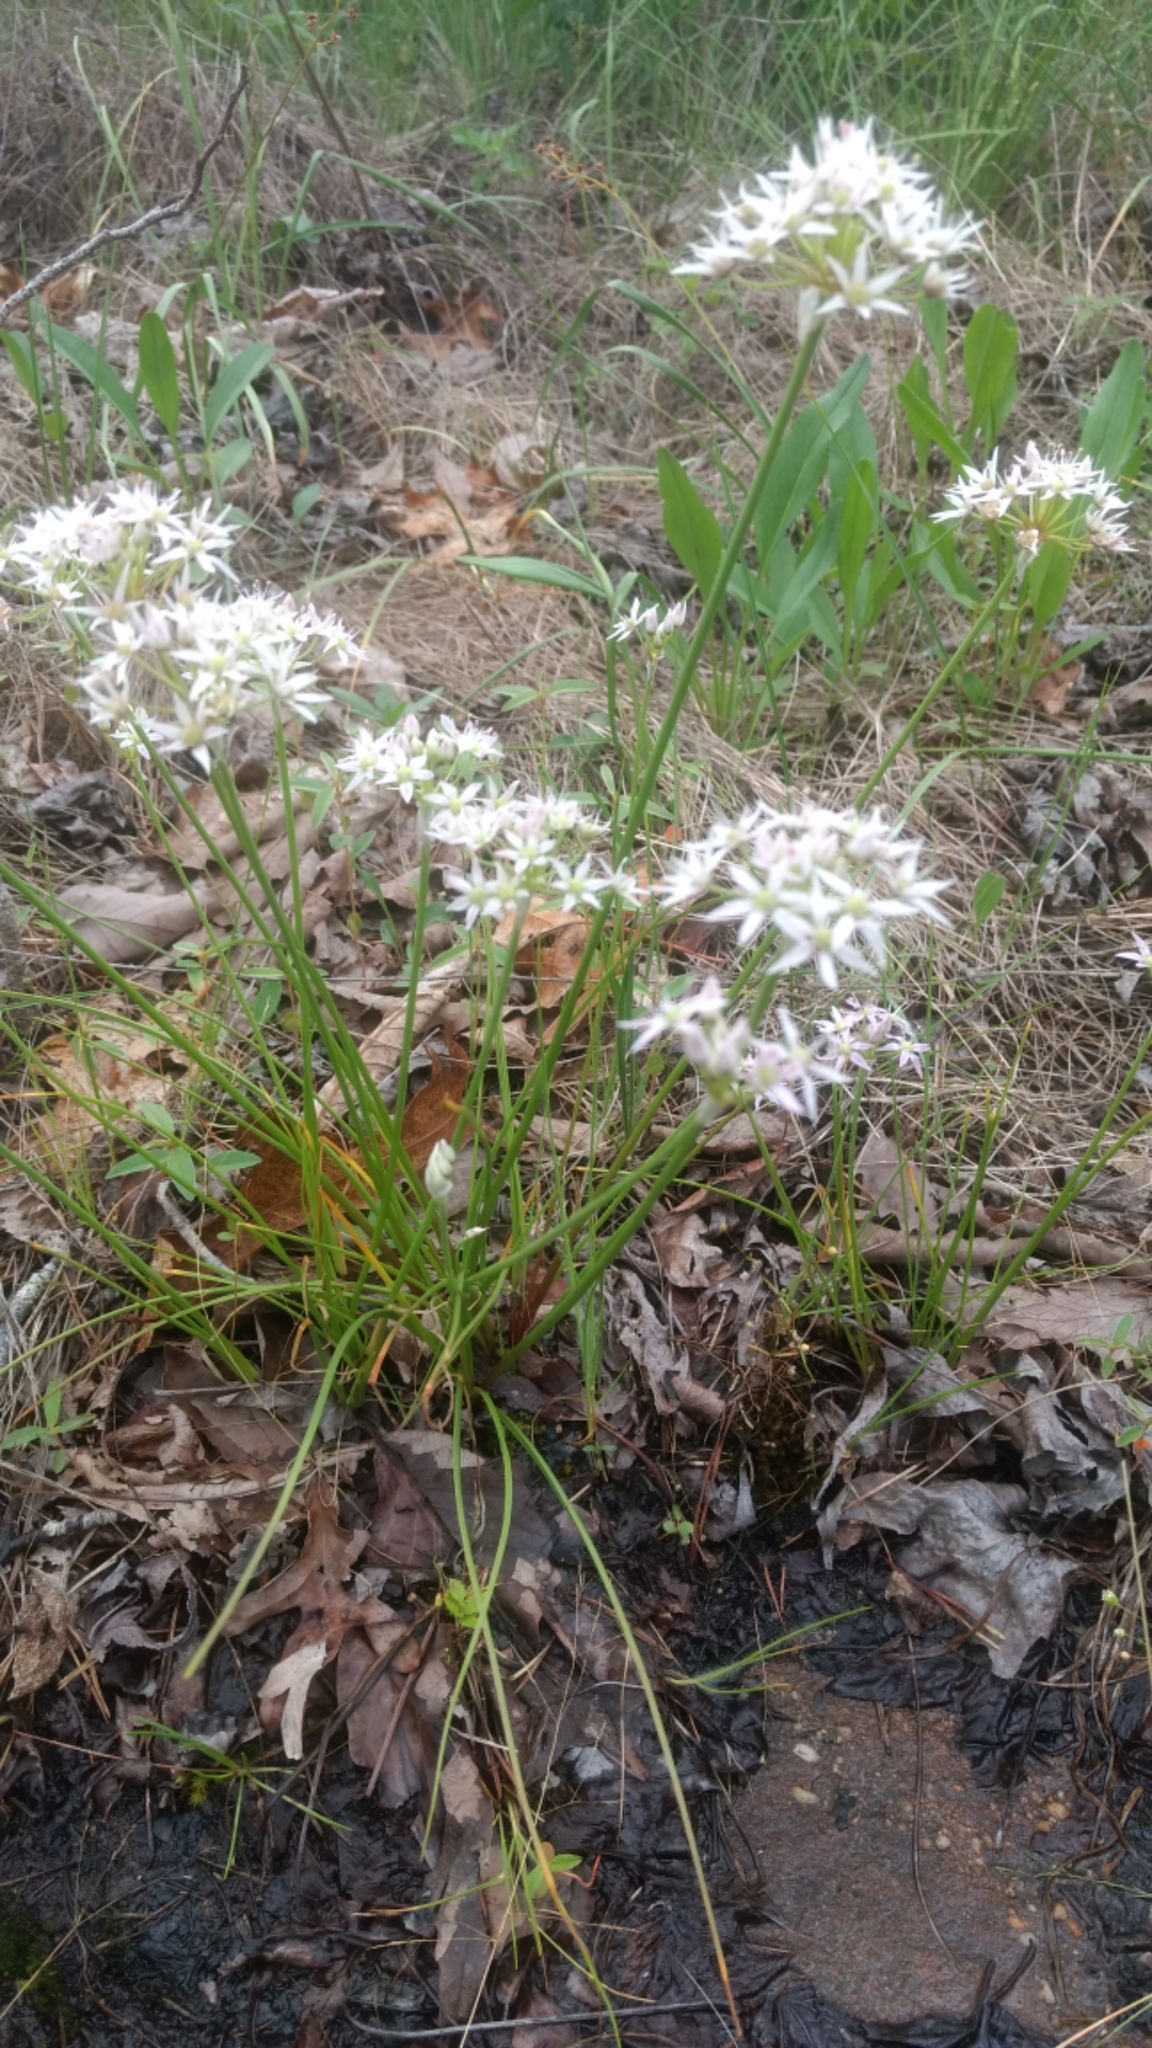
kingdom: Plantae
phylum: Tracheophyta
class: Liliopsida
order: Asparagales
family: Amaryllidaceae
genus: Allium
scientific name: Allium speculae
